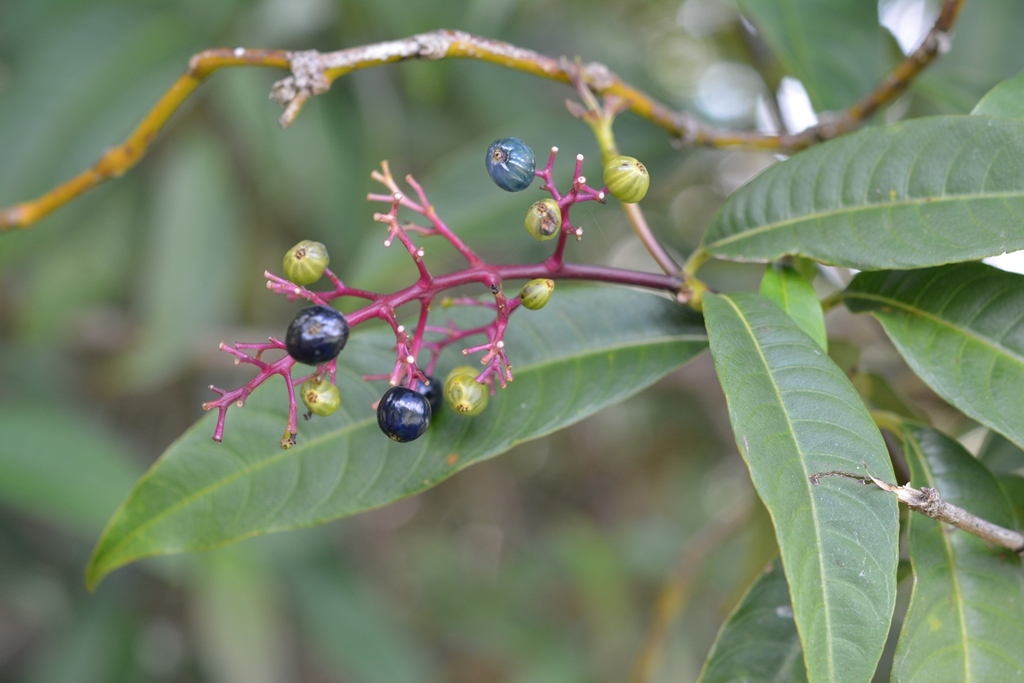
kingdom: Plantae
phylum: Tracheophyta
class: Magnoliopsida
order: Gentianales
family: Rubiaceae
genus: Palicourea
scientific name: Palicourea padifolia
